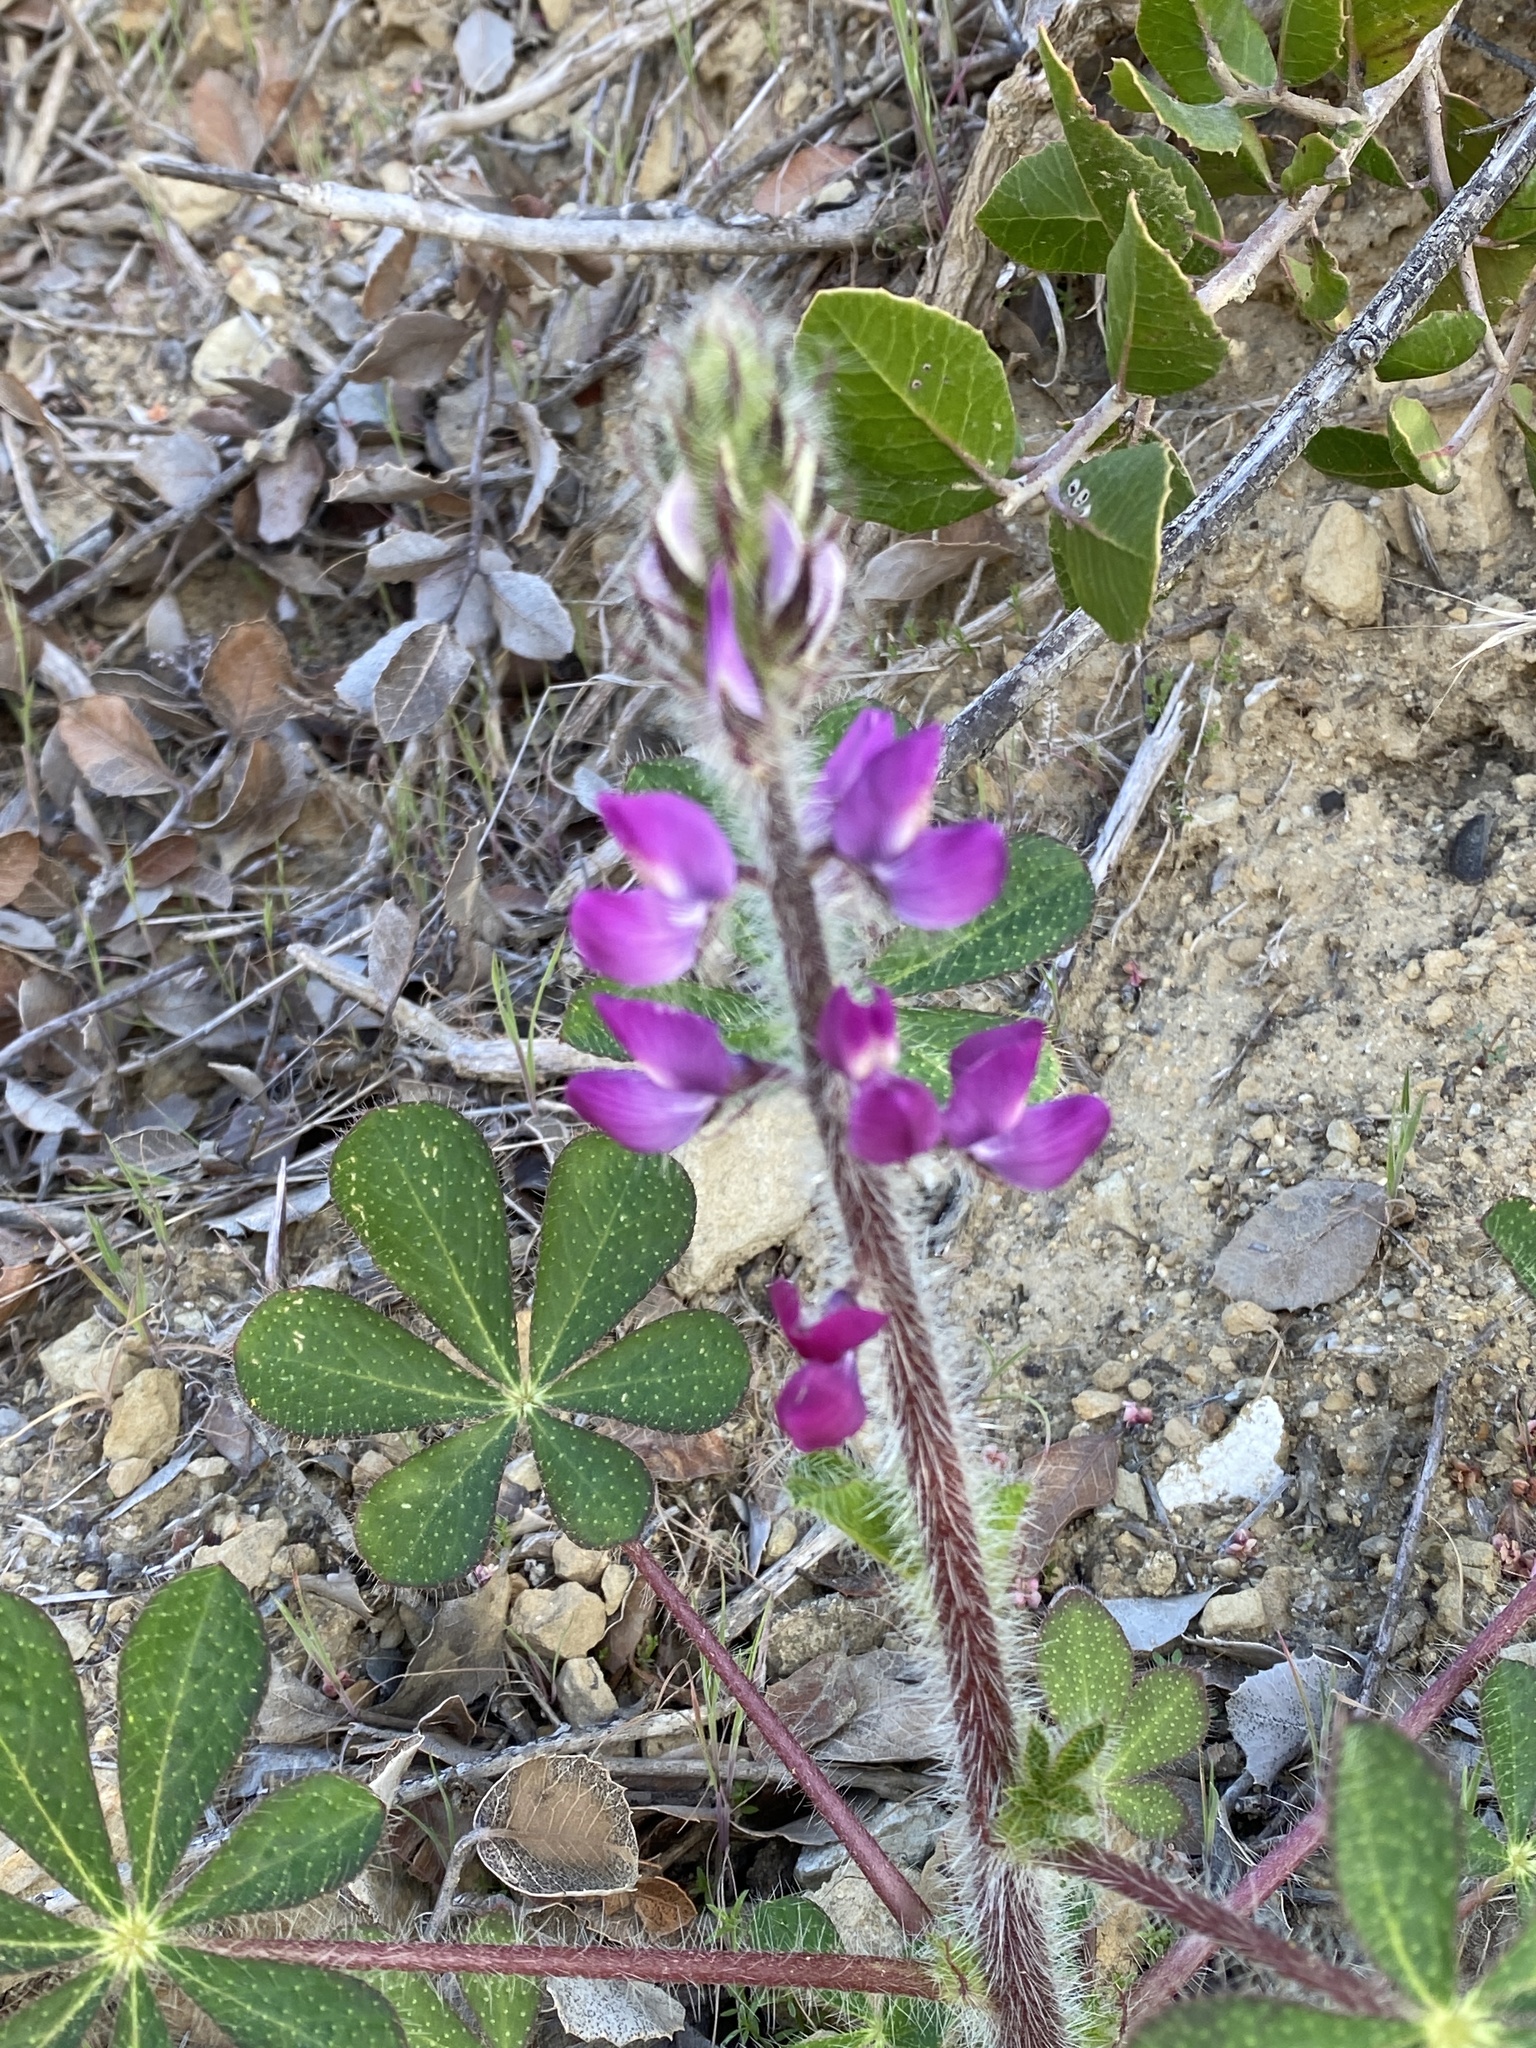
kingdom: Plantae
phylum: Tracheophyta
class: Magnoliopsida
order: Fabales
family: Fabaceae
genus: Lupinus
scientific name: Lupinus hirsutissimus
